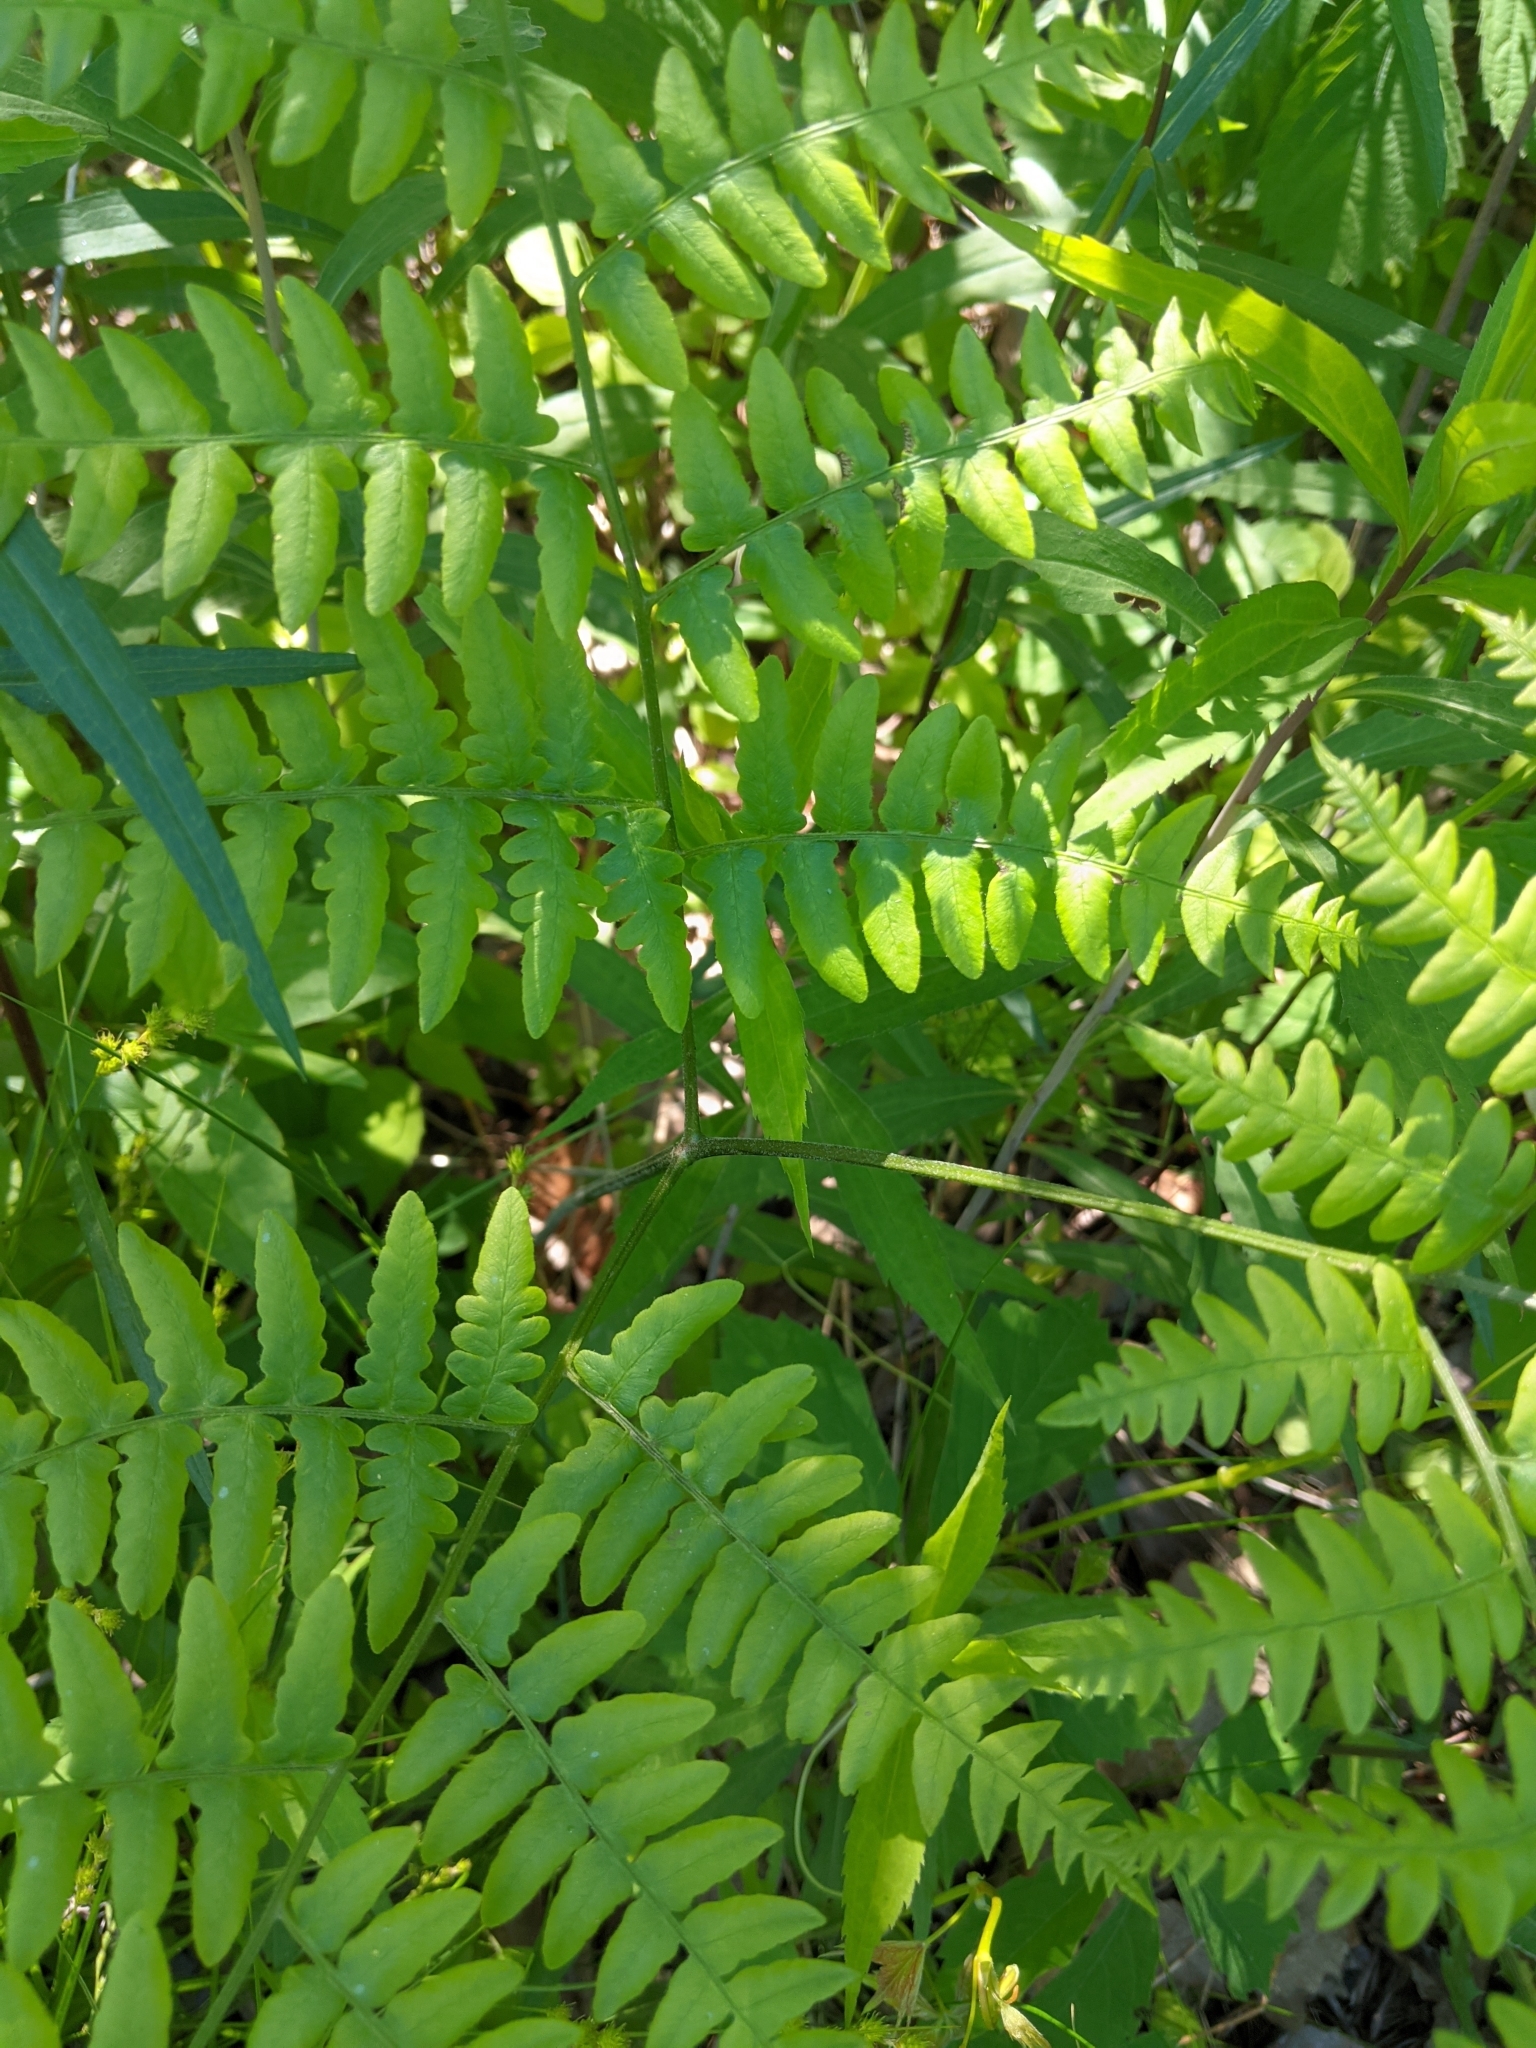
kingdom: Plantae
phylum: Tracheophyta
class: Polypodiopsida
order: Polypodiales
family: Dennstaedtiaceae
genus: Pteridium
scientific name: Pteridium aquilinum
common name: Bracken
